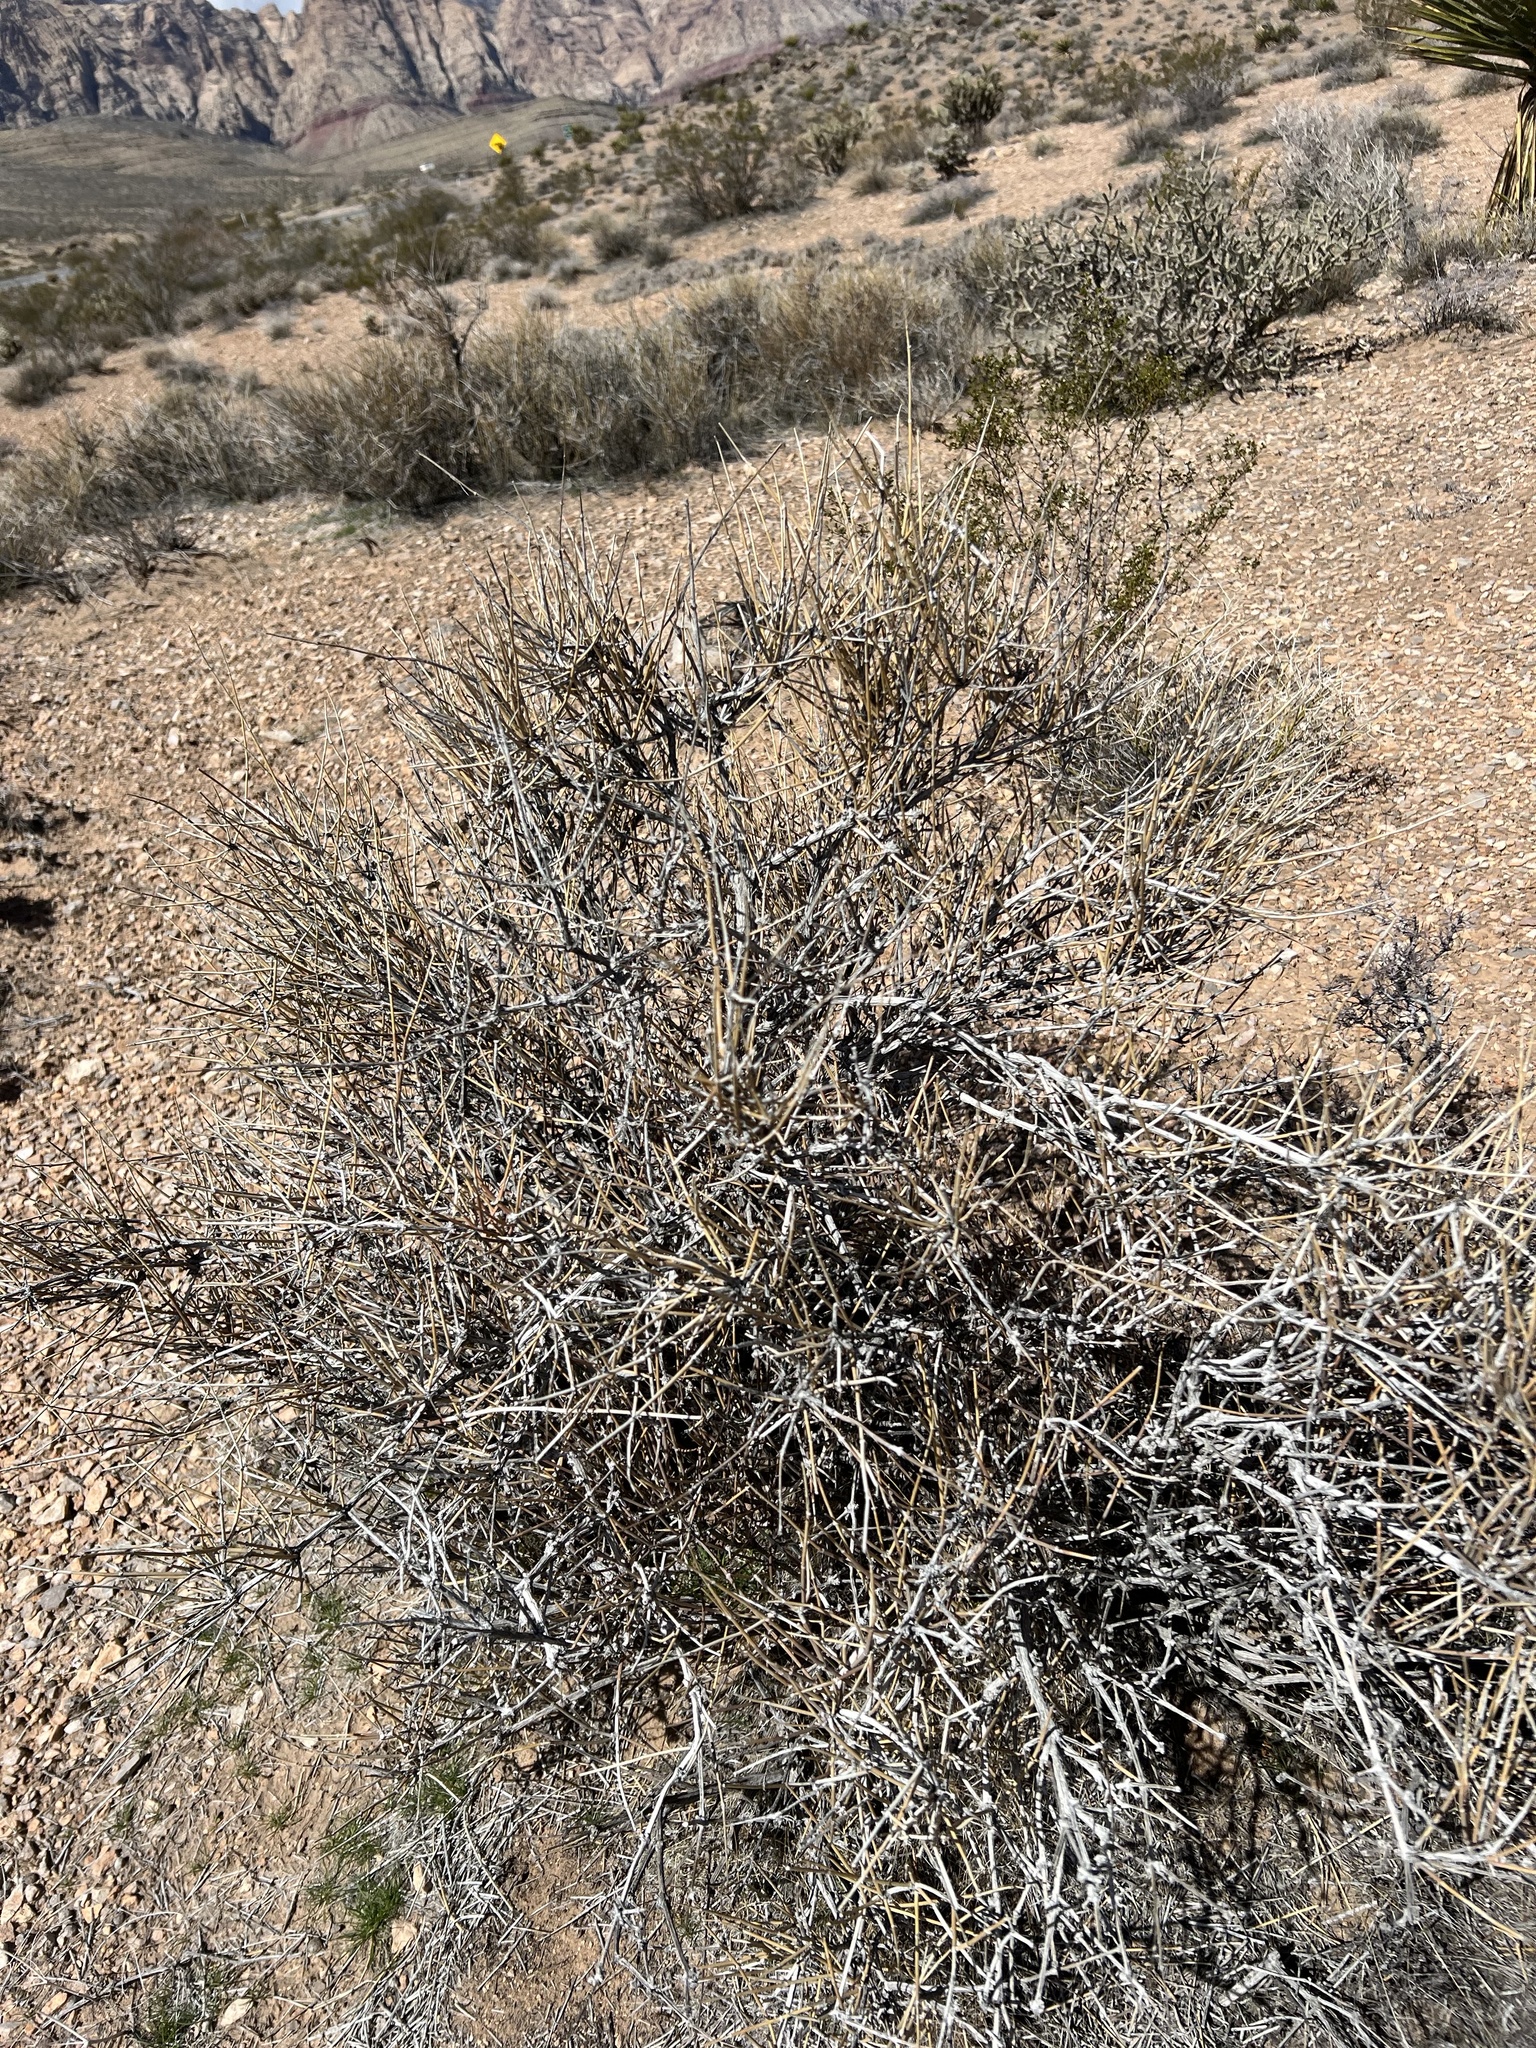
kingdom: Plantae
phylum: Tracheophyta
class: Gnetopsida
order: Ephedrales
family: Ephedraceae
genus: Ephedra
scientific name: Ephedra nevadensis
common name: Gray ephedra
